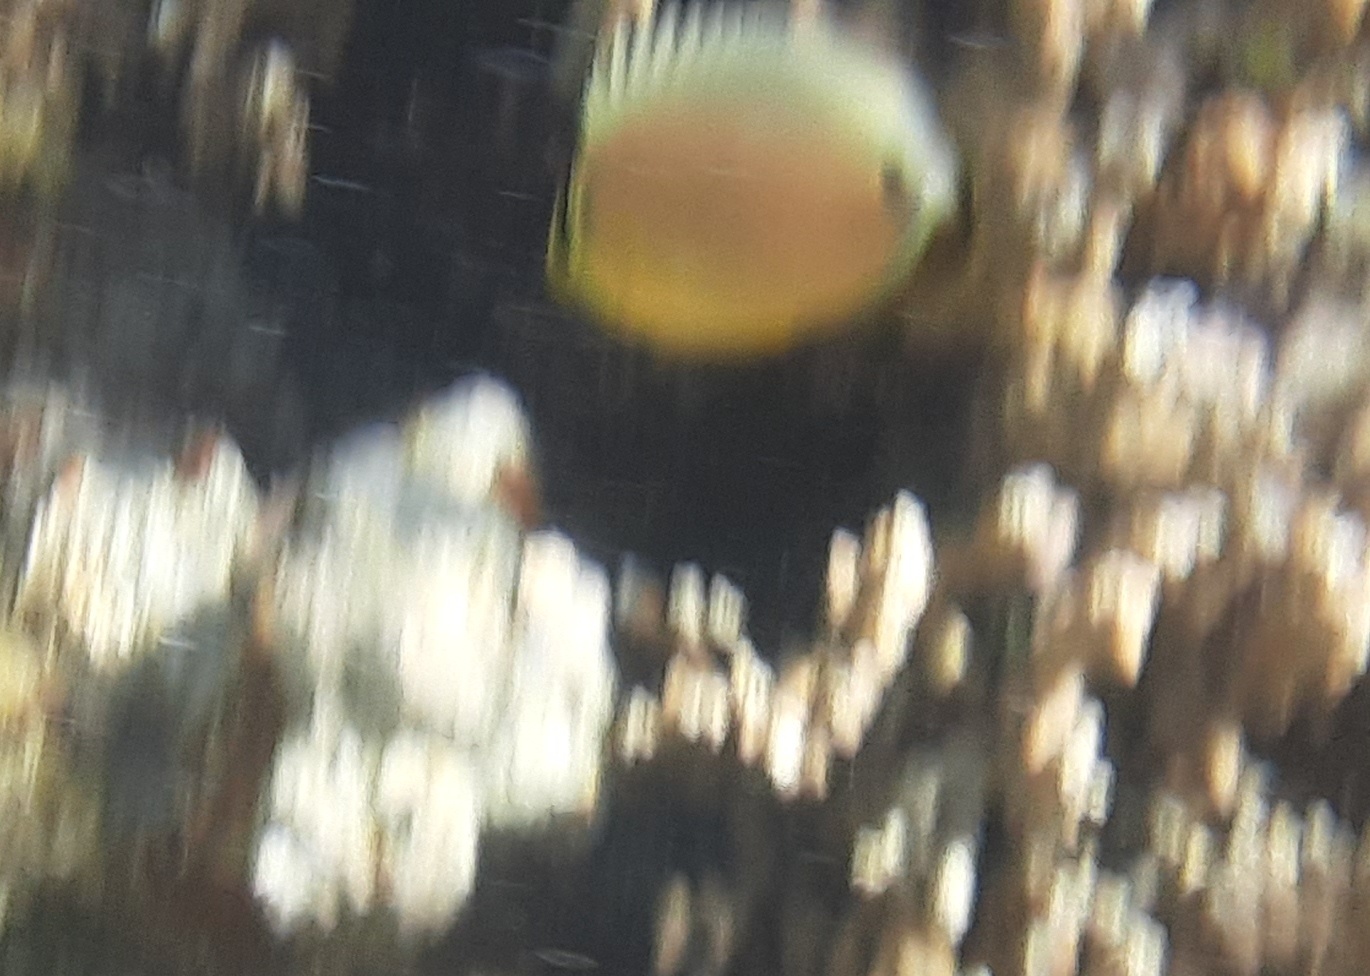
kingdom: Animalia
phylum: Chordata
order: Perciformes
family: Chaetodontidae
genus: Chaetodon
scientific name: Chaetodon lunulatus
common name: Redfin butterflyfish
